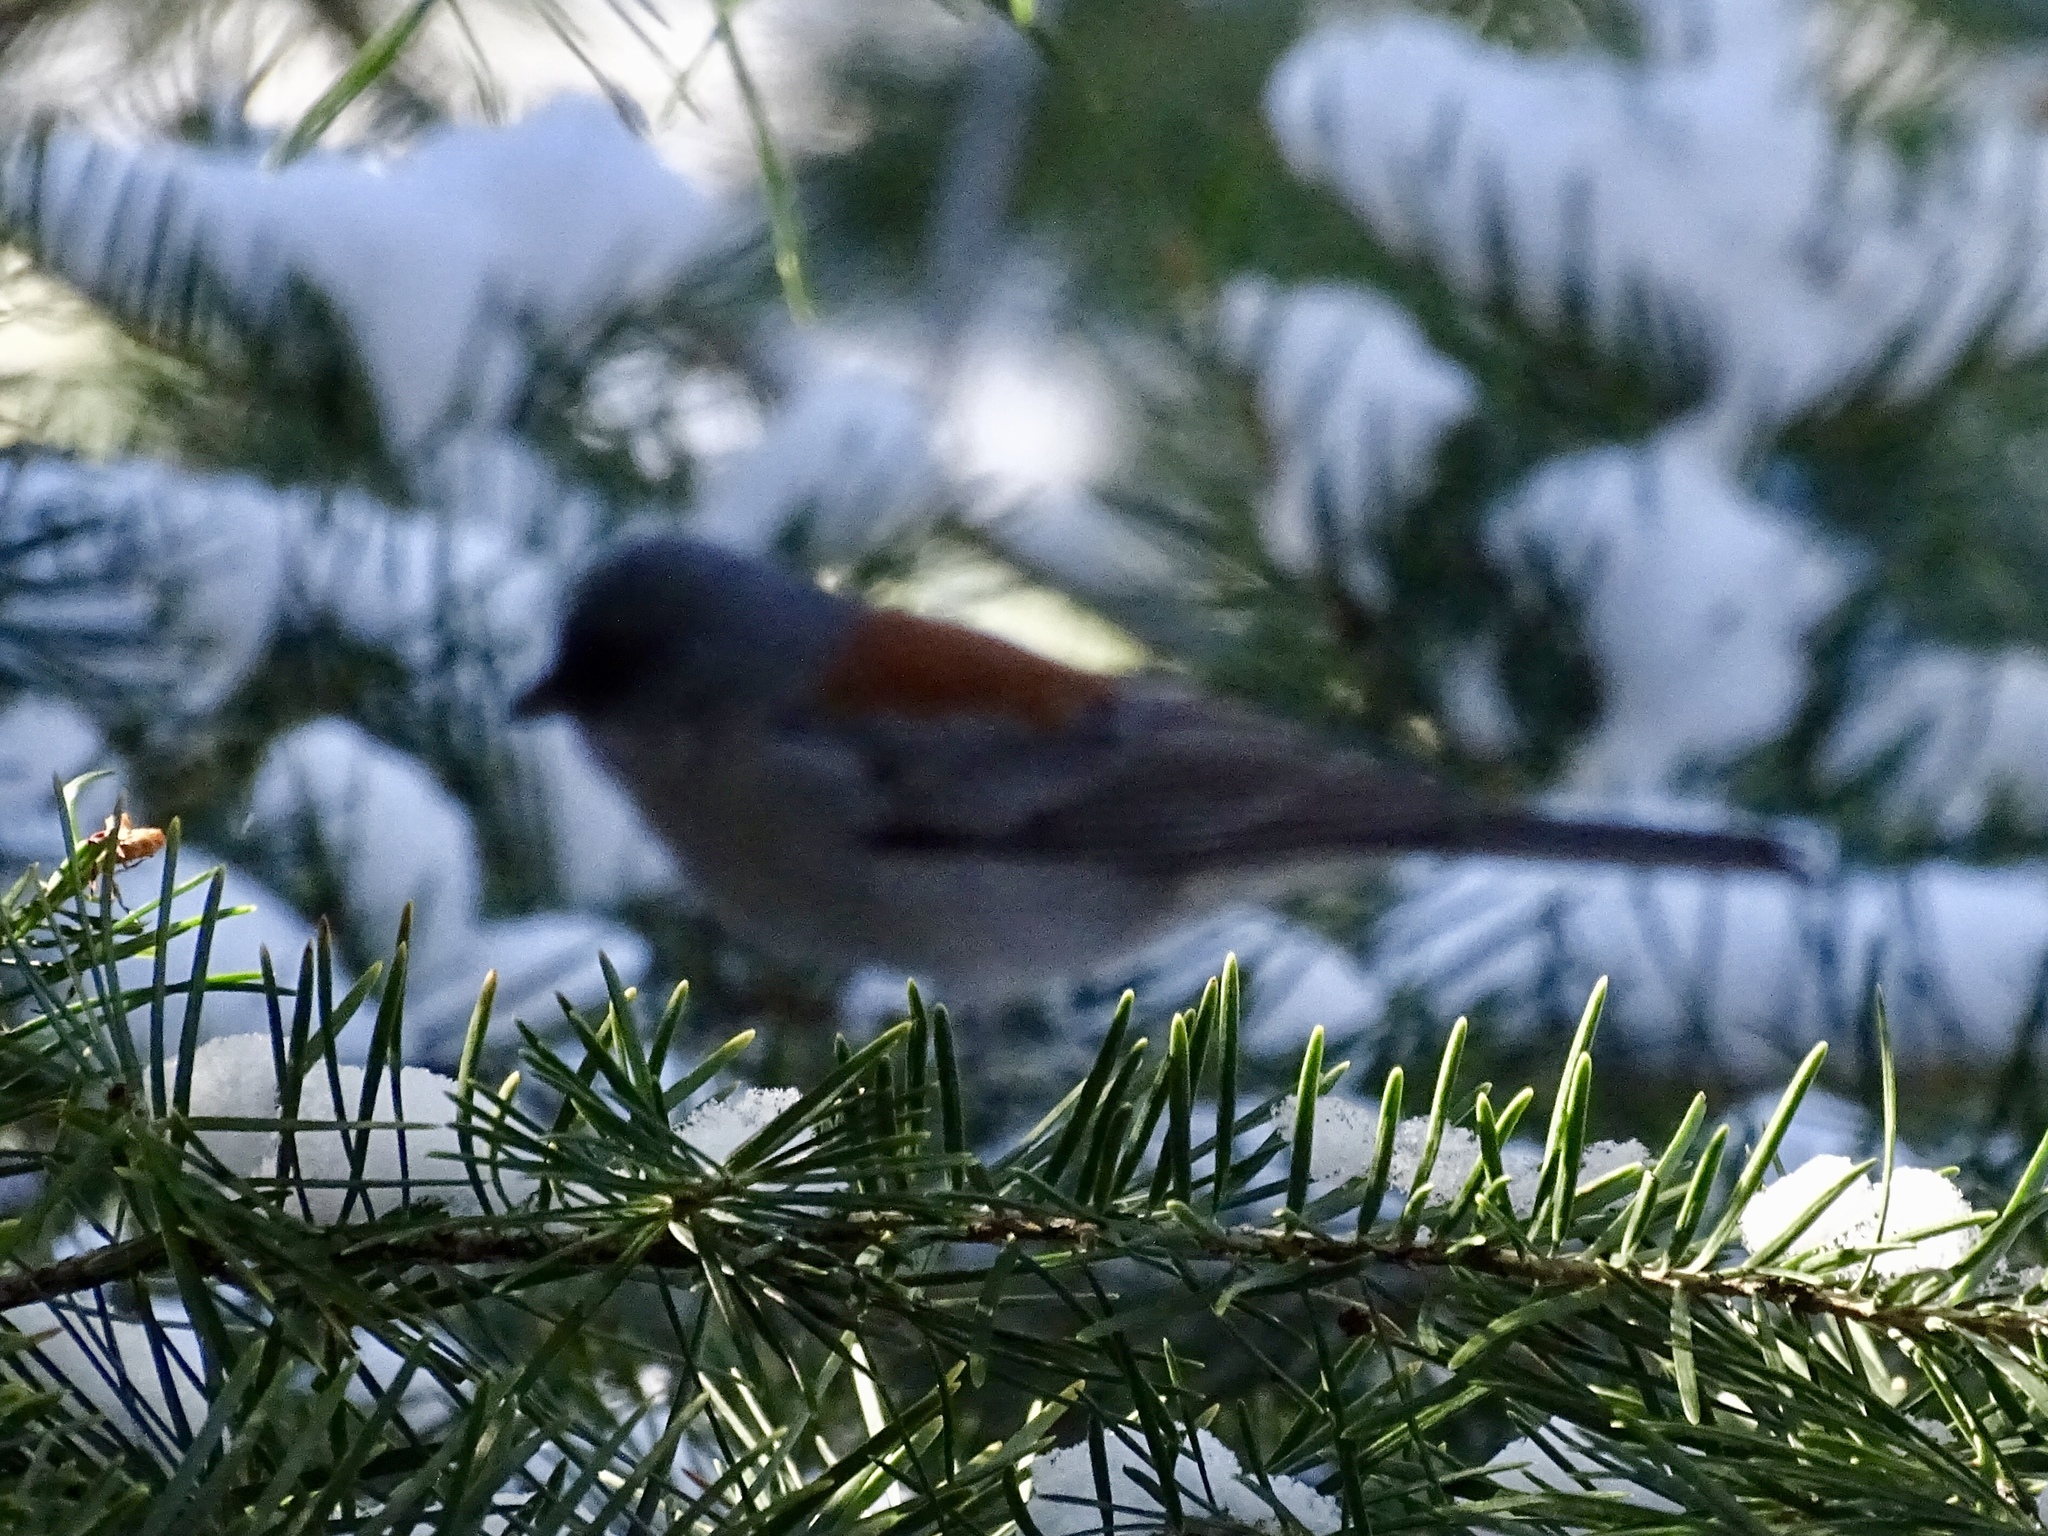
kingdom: Animalia
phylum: Chordata
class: Aves
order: Passeriformes
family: Passerellidae
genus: Junco
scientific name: Junco hyemalis
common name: Dark-eyed junco
